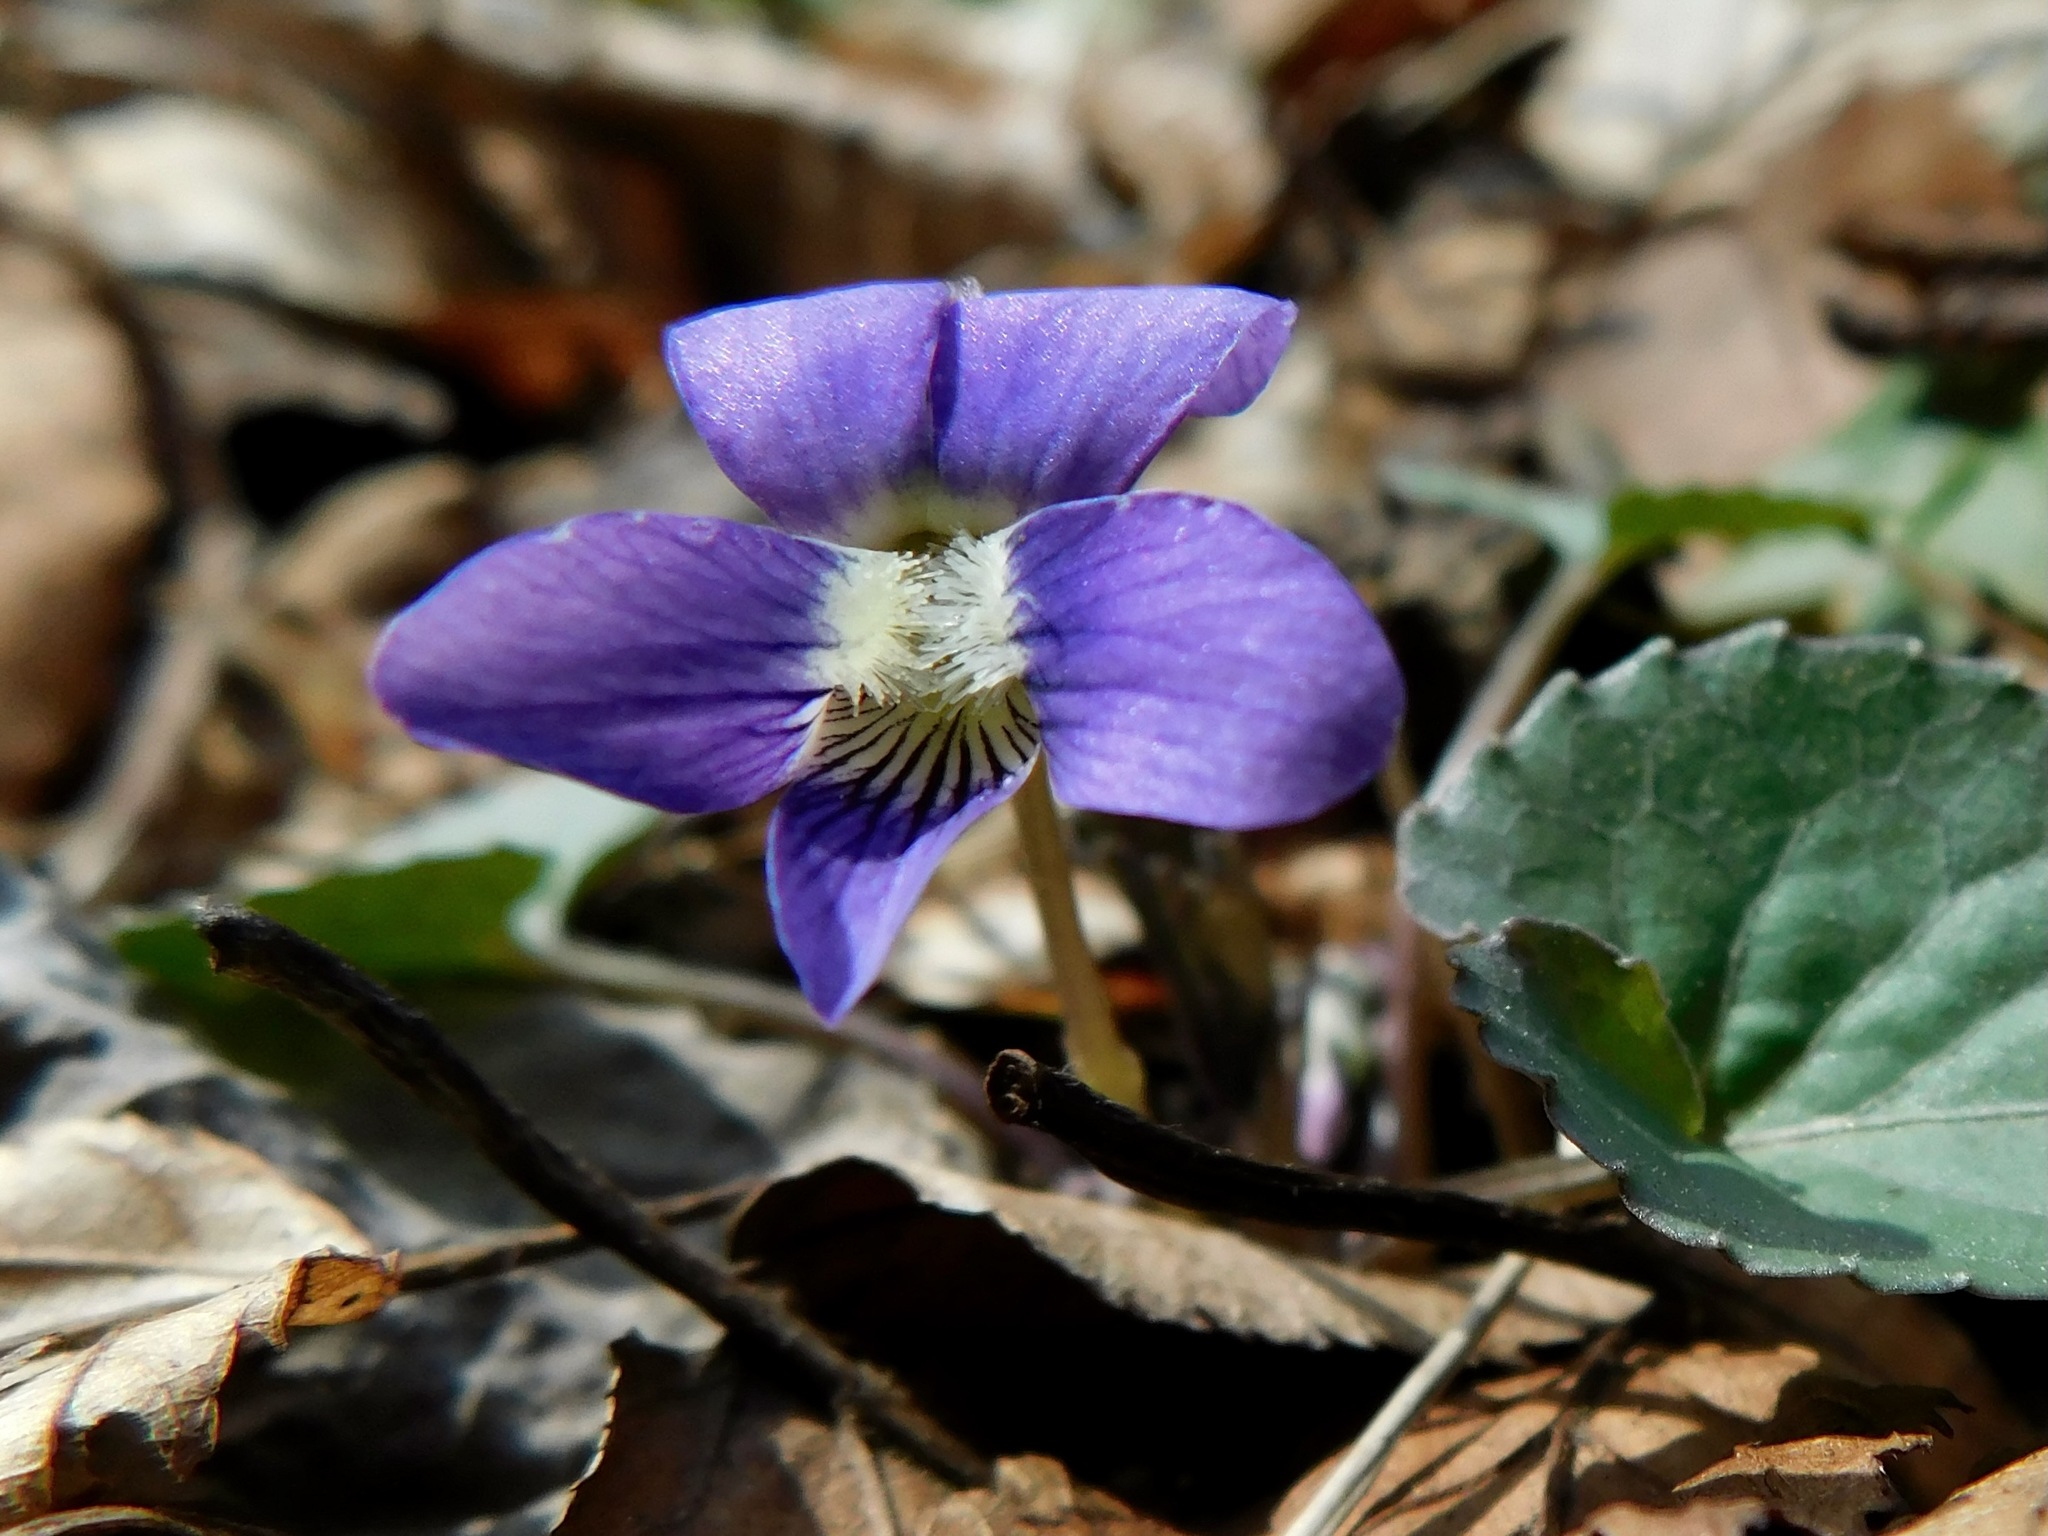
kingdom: Plantae
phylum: Tracheophyta
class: Magnoliopsida
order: Malpighiales
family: Violaceae
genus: Viola
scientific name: Viola cucullata
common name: Marsh blue violet
